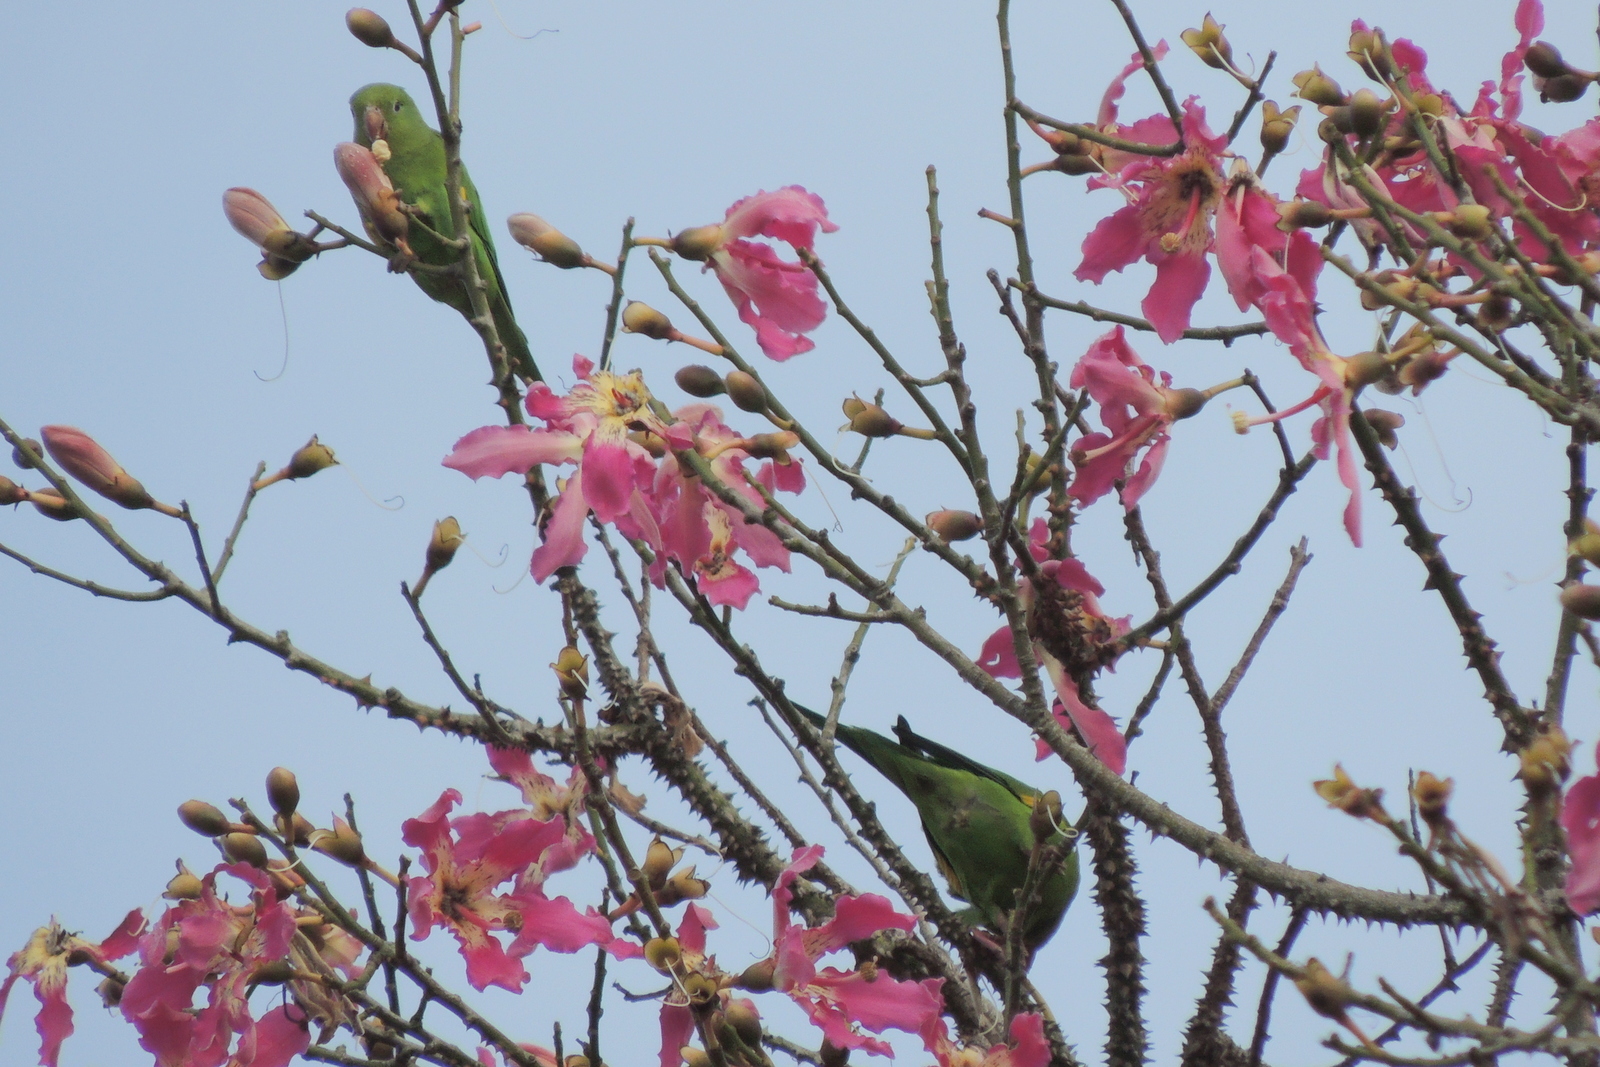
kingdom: Animalia
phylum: Chordata
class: Aves
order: Psittaciformes
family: Psittacidae
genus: Brotogeris
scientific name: Brotogeris chiriri
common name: Yellow-chevroned parakeet
